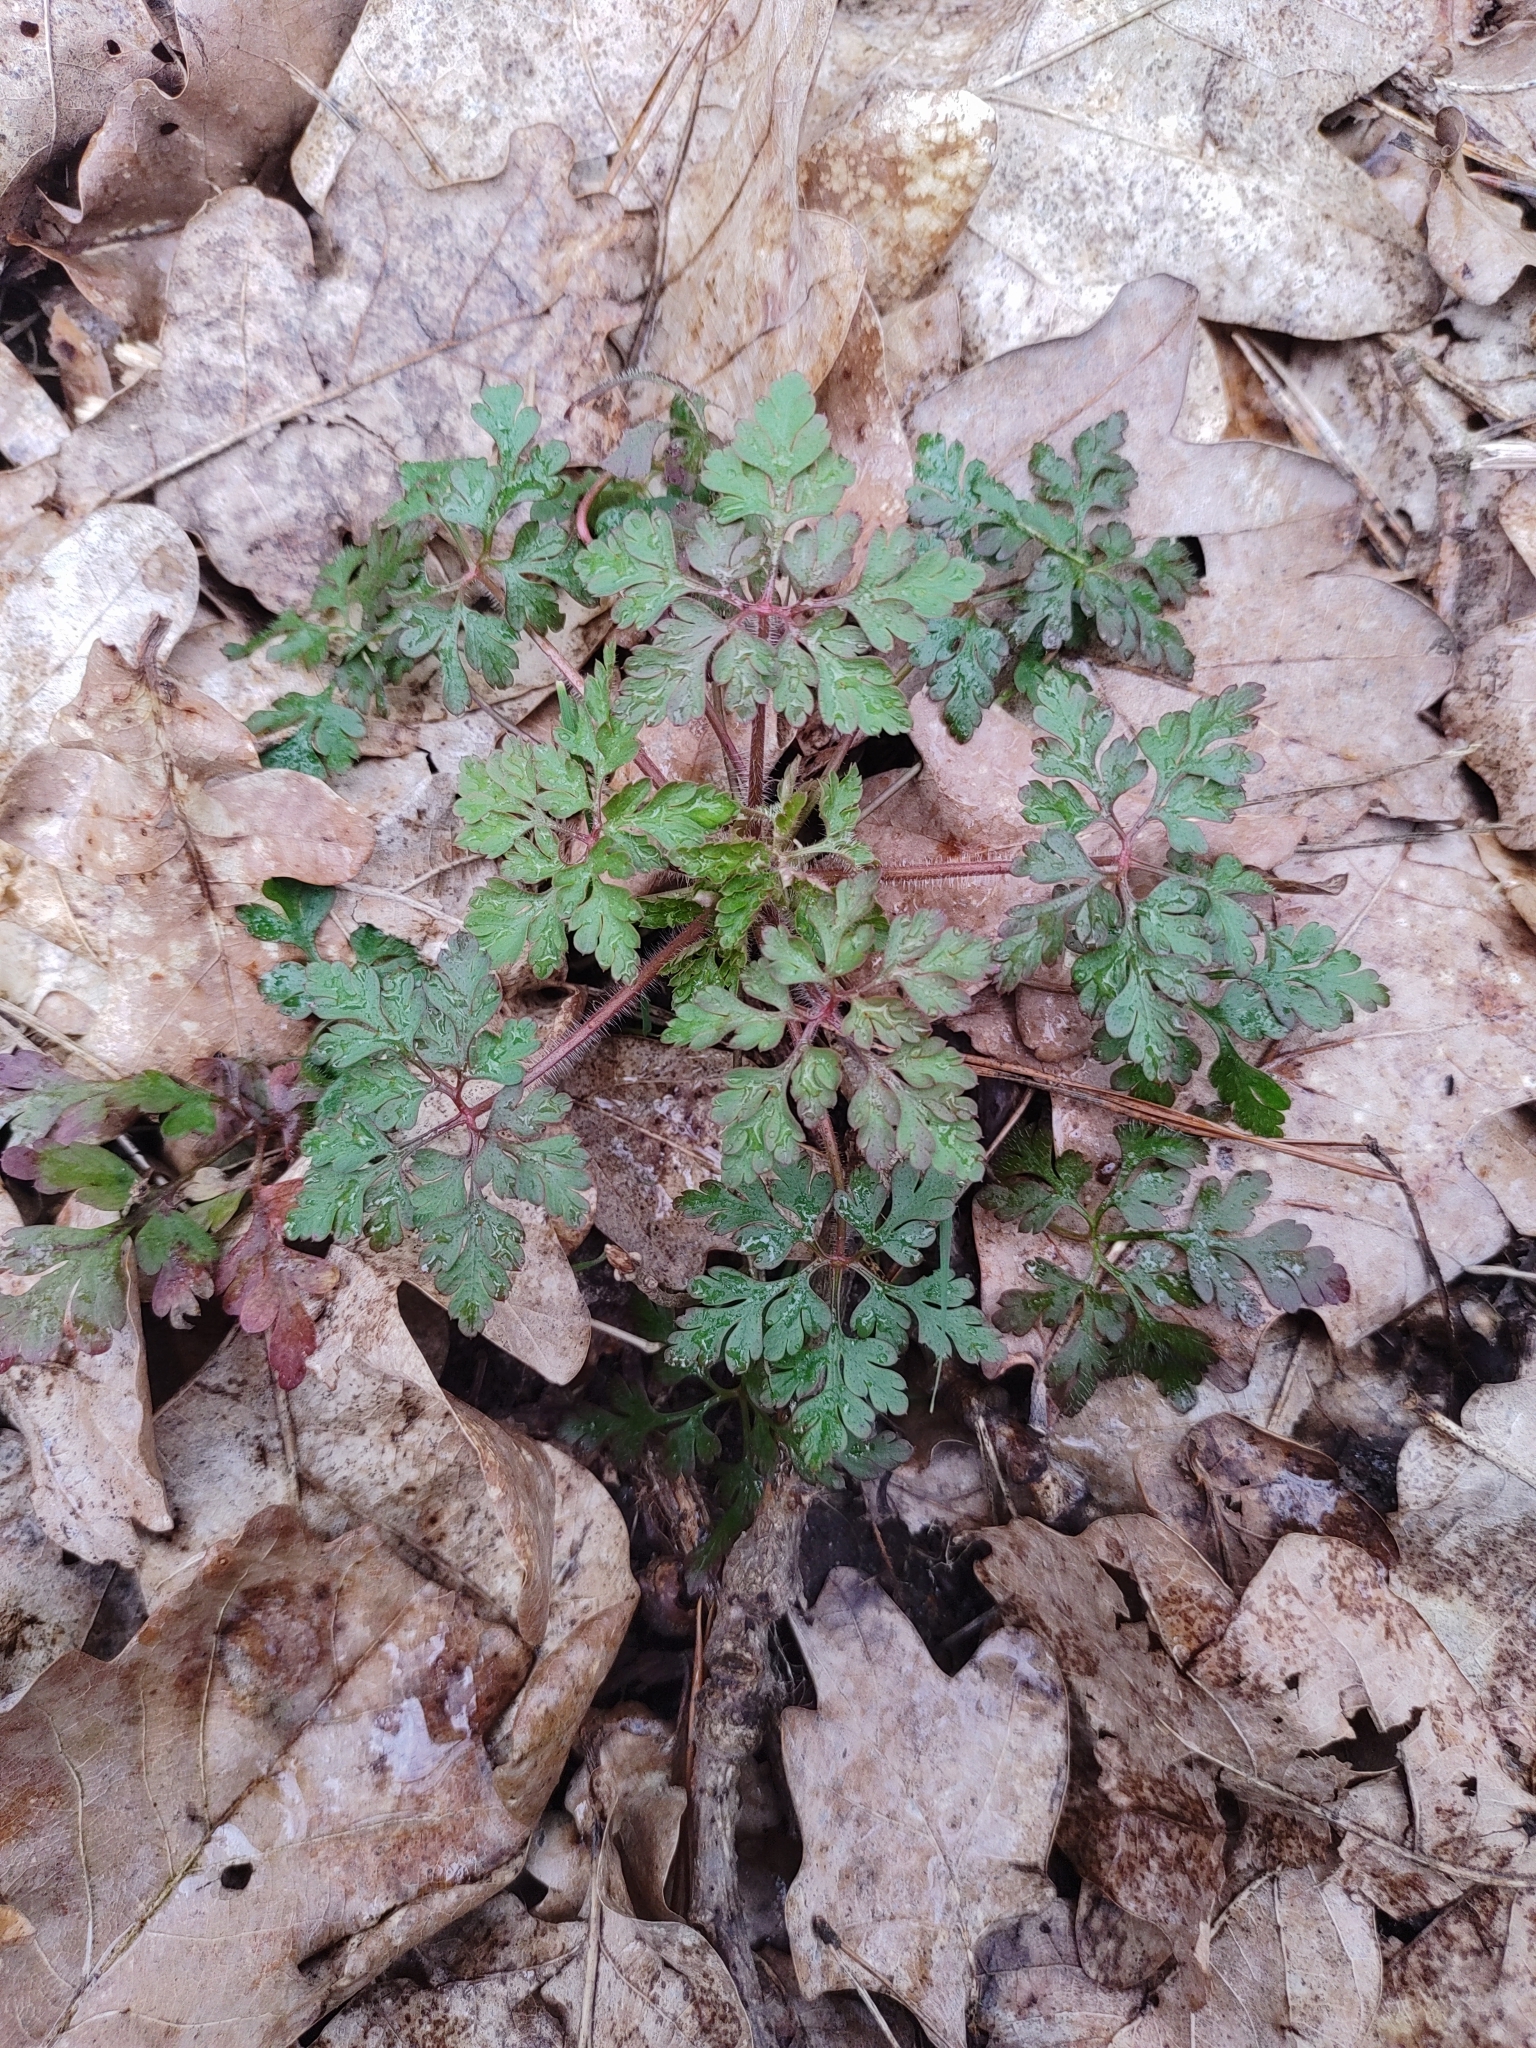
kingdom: Plantae
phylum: Tracheophyta
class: Magnoliopsida
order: Geraniales
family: Geraniaceae
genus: Geranium
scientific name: Geranium robertianum
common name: Herb-robert
